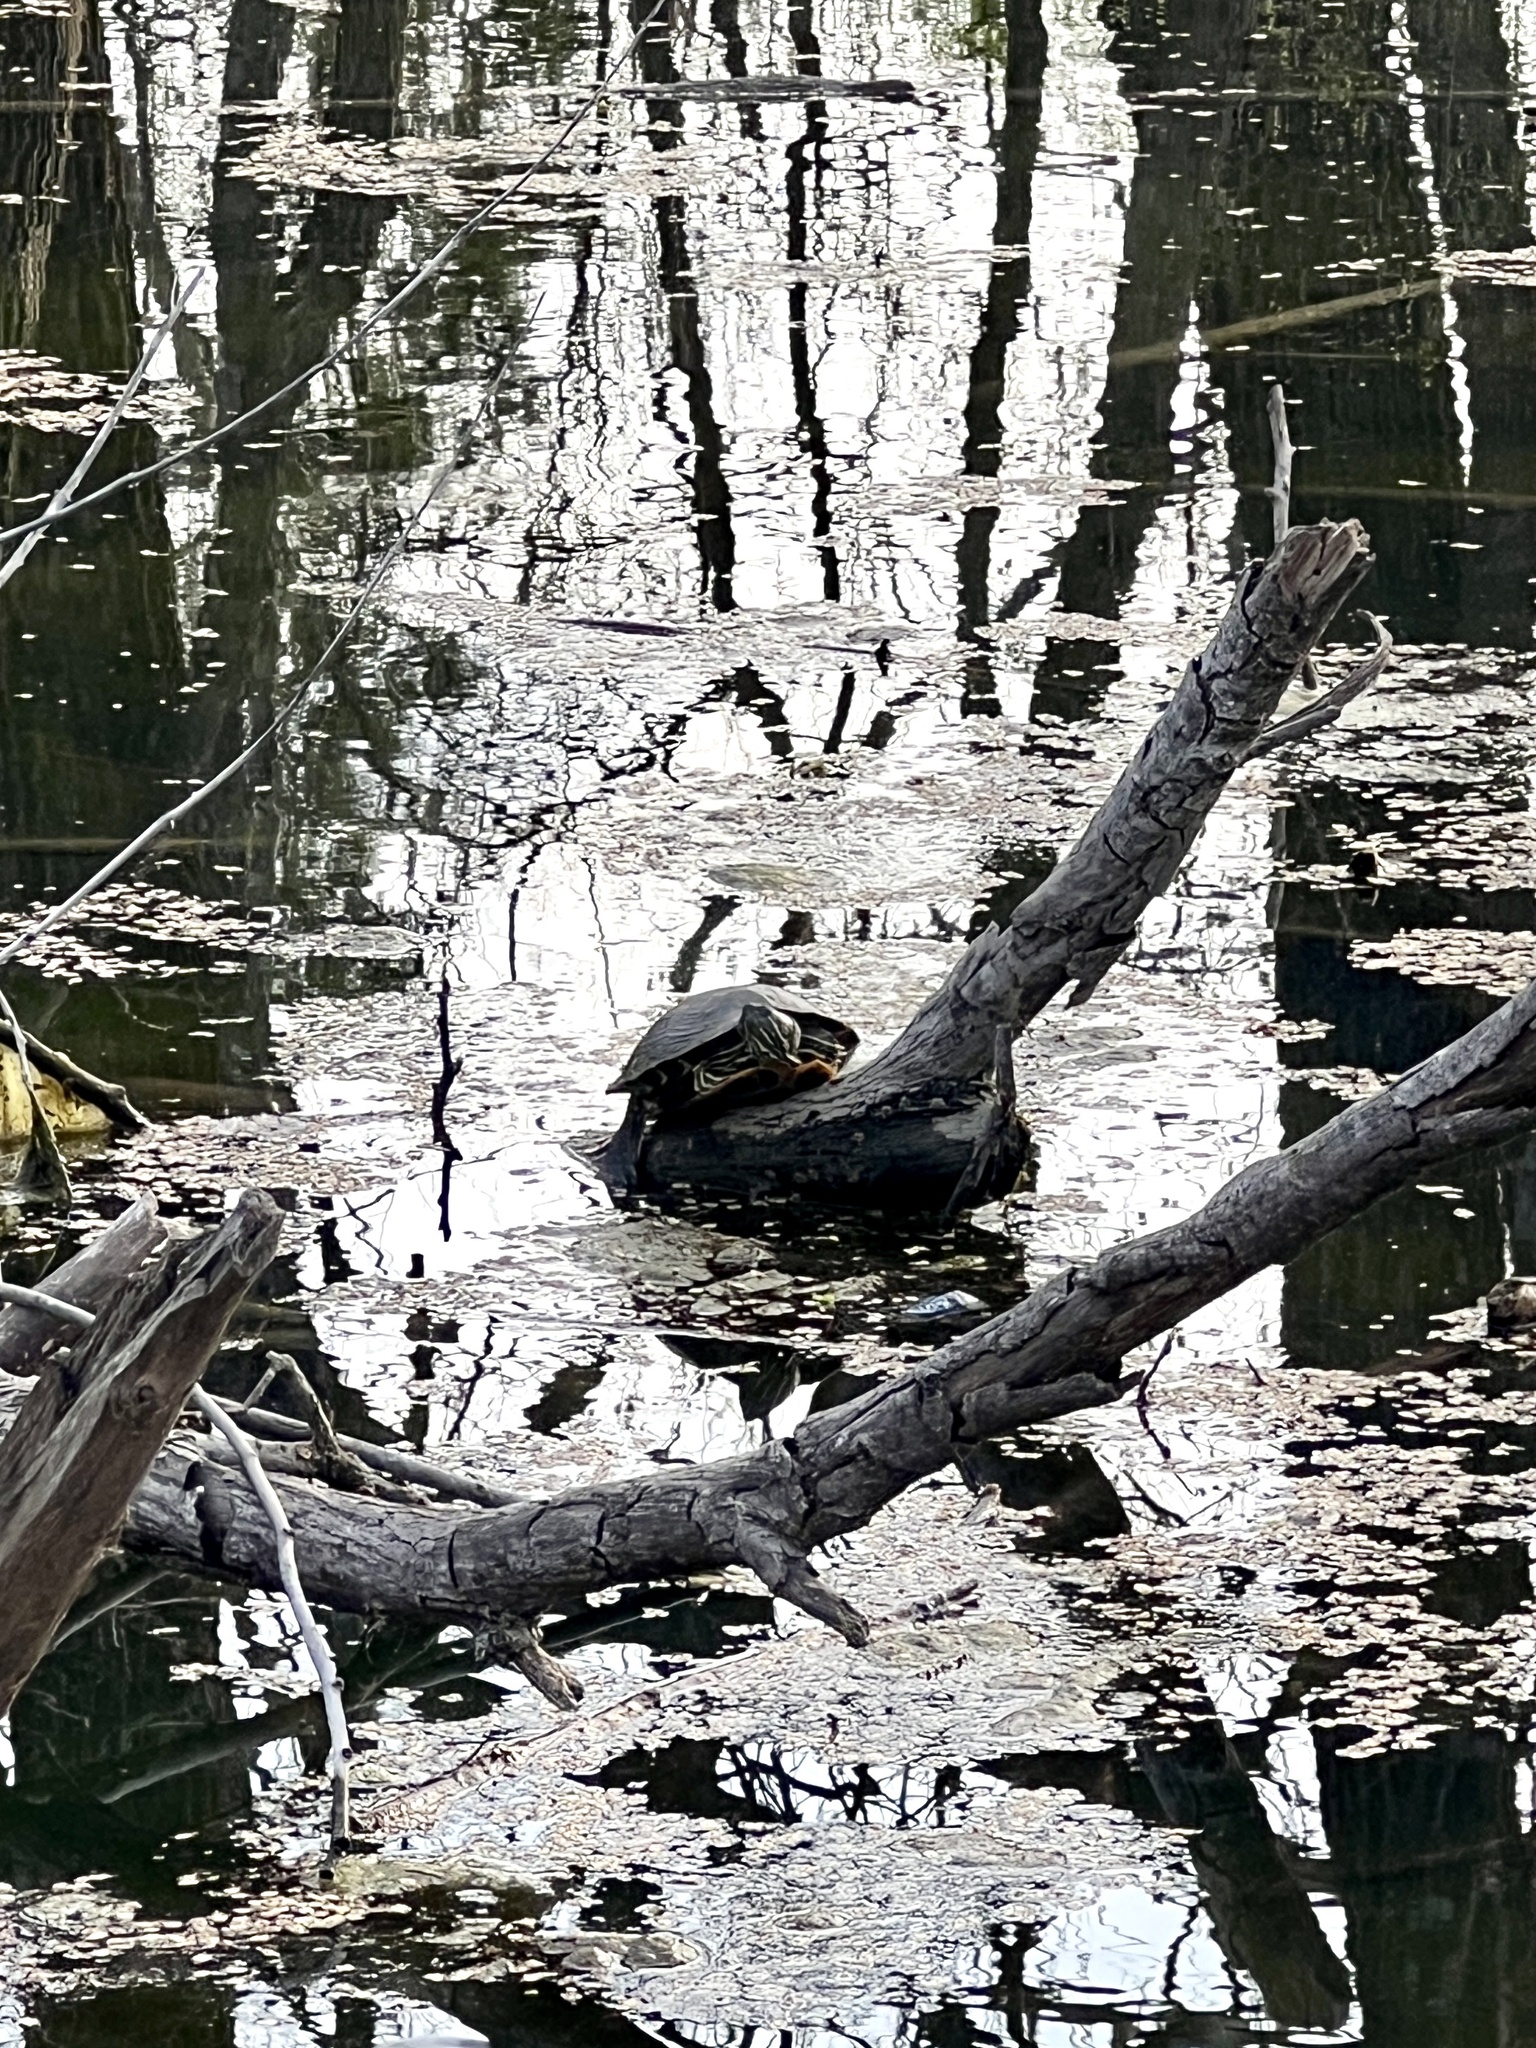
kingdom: Animalia
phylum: Chordata
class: Testudines
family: Emydidae
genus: Trachemys
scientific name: Trachemys scripta
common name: Slider
